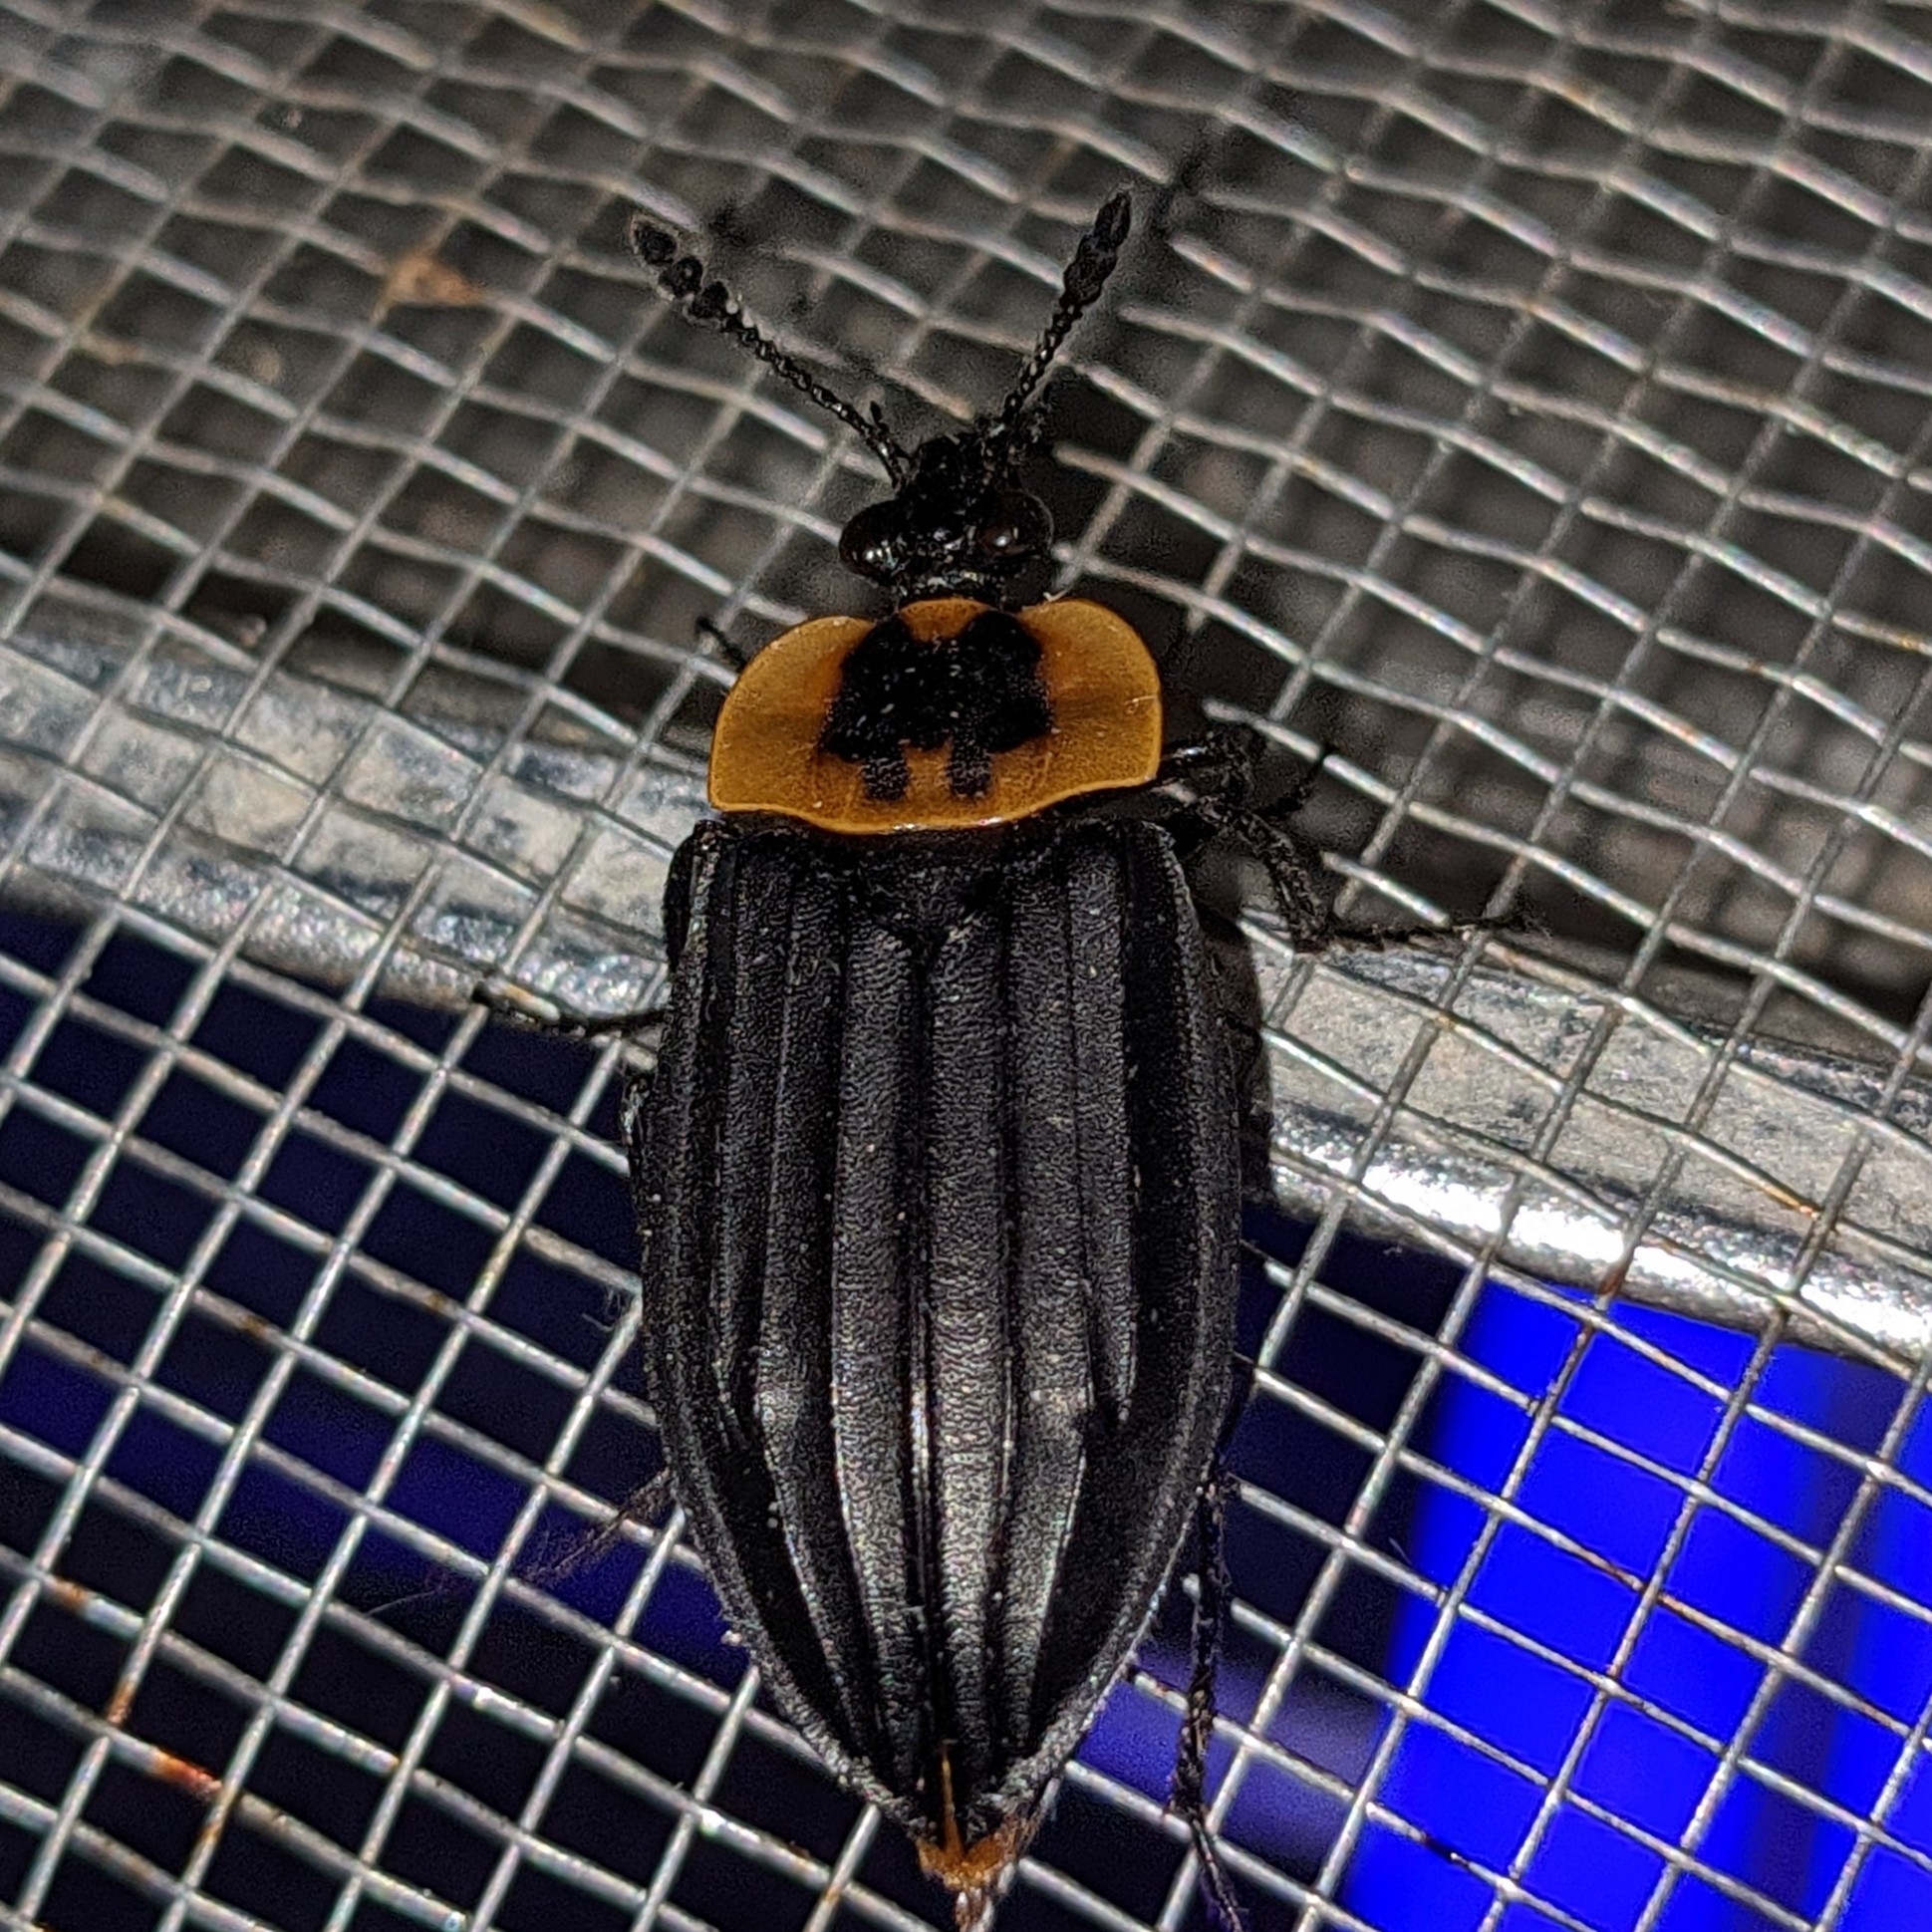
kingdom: Animalia
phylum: Arthropoda
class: Insecta
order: Coleoptera
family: Staphylinidae
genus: Oxelytrum
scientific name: Oxelytrum discicolle
